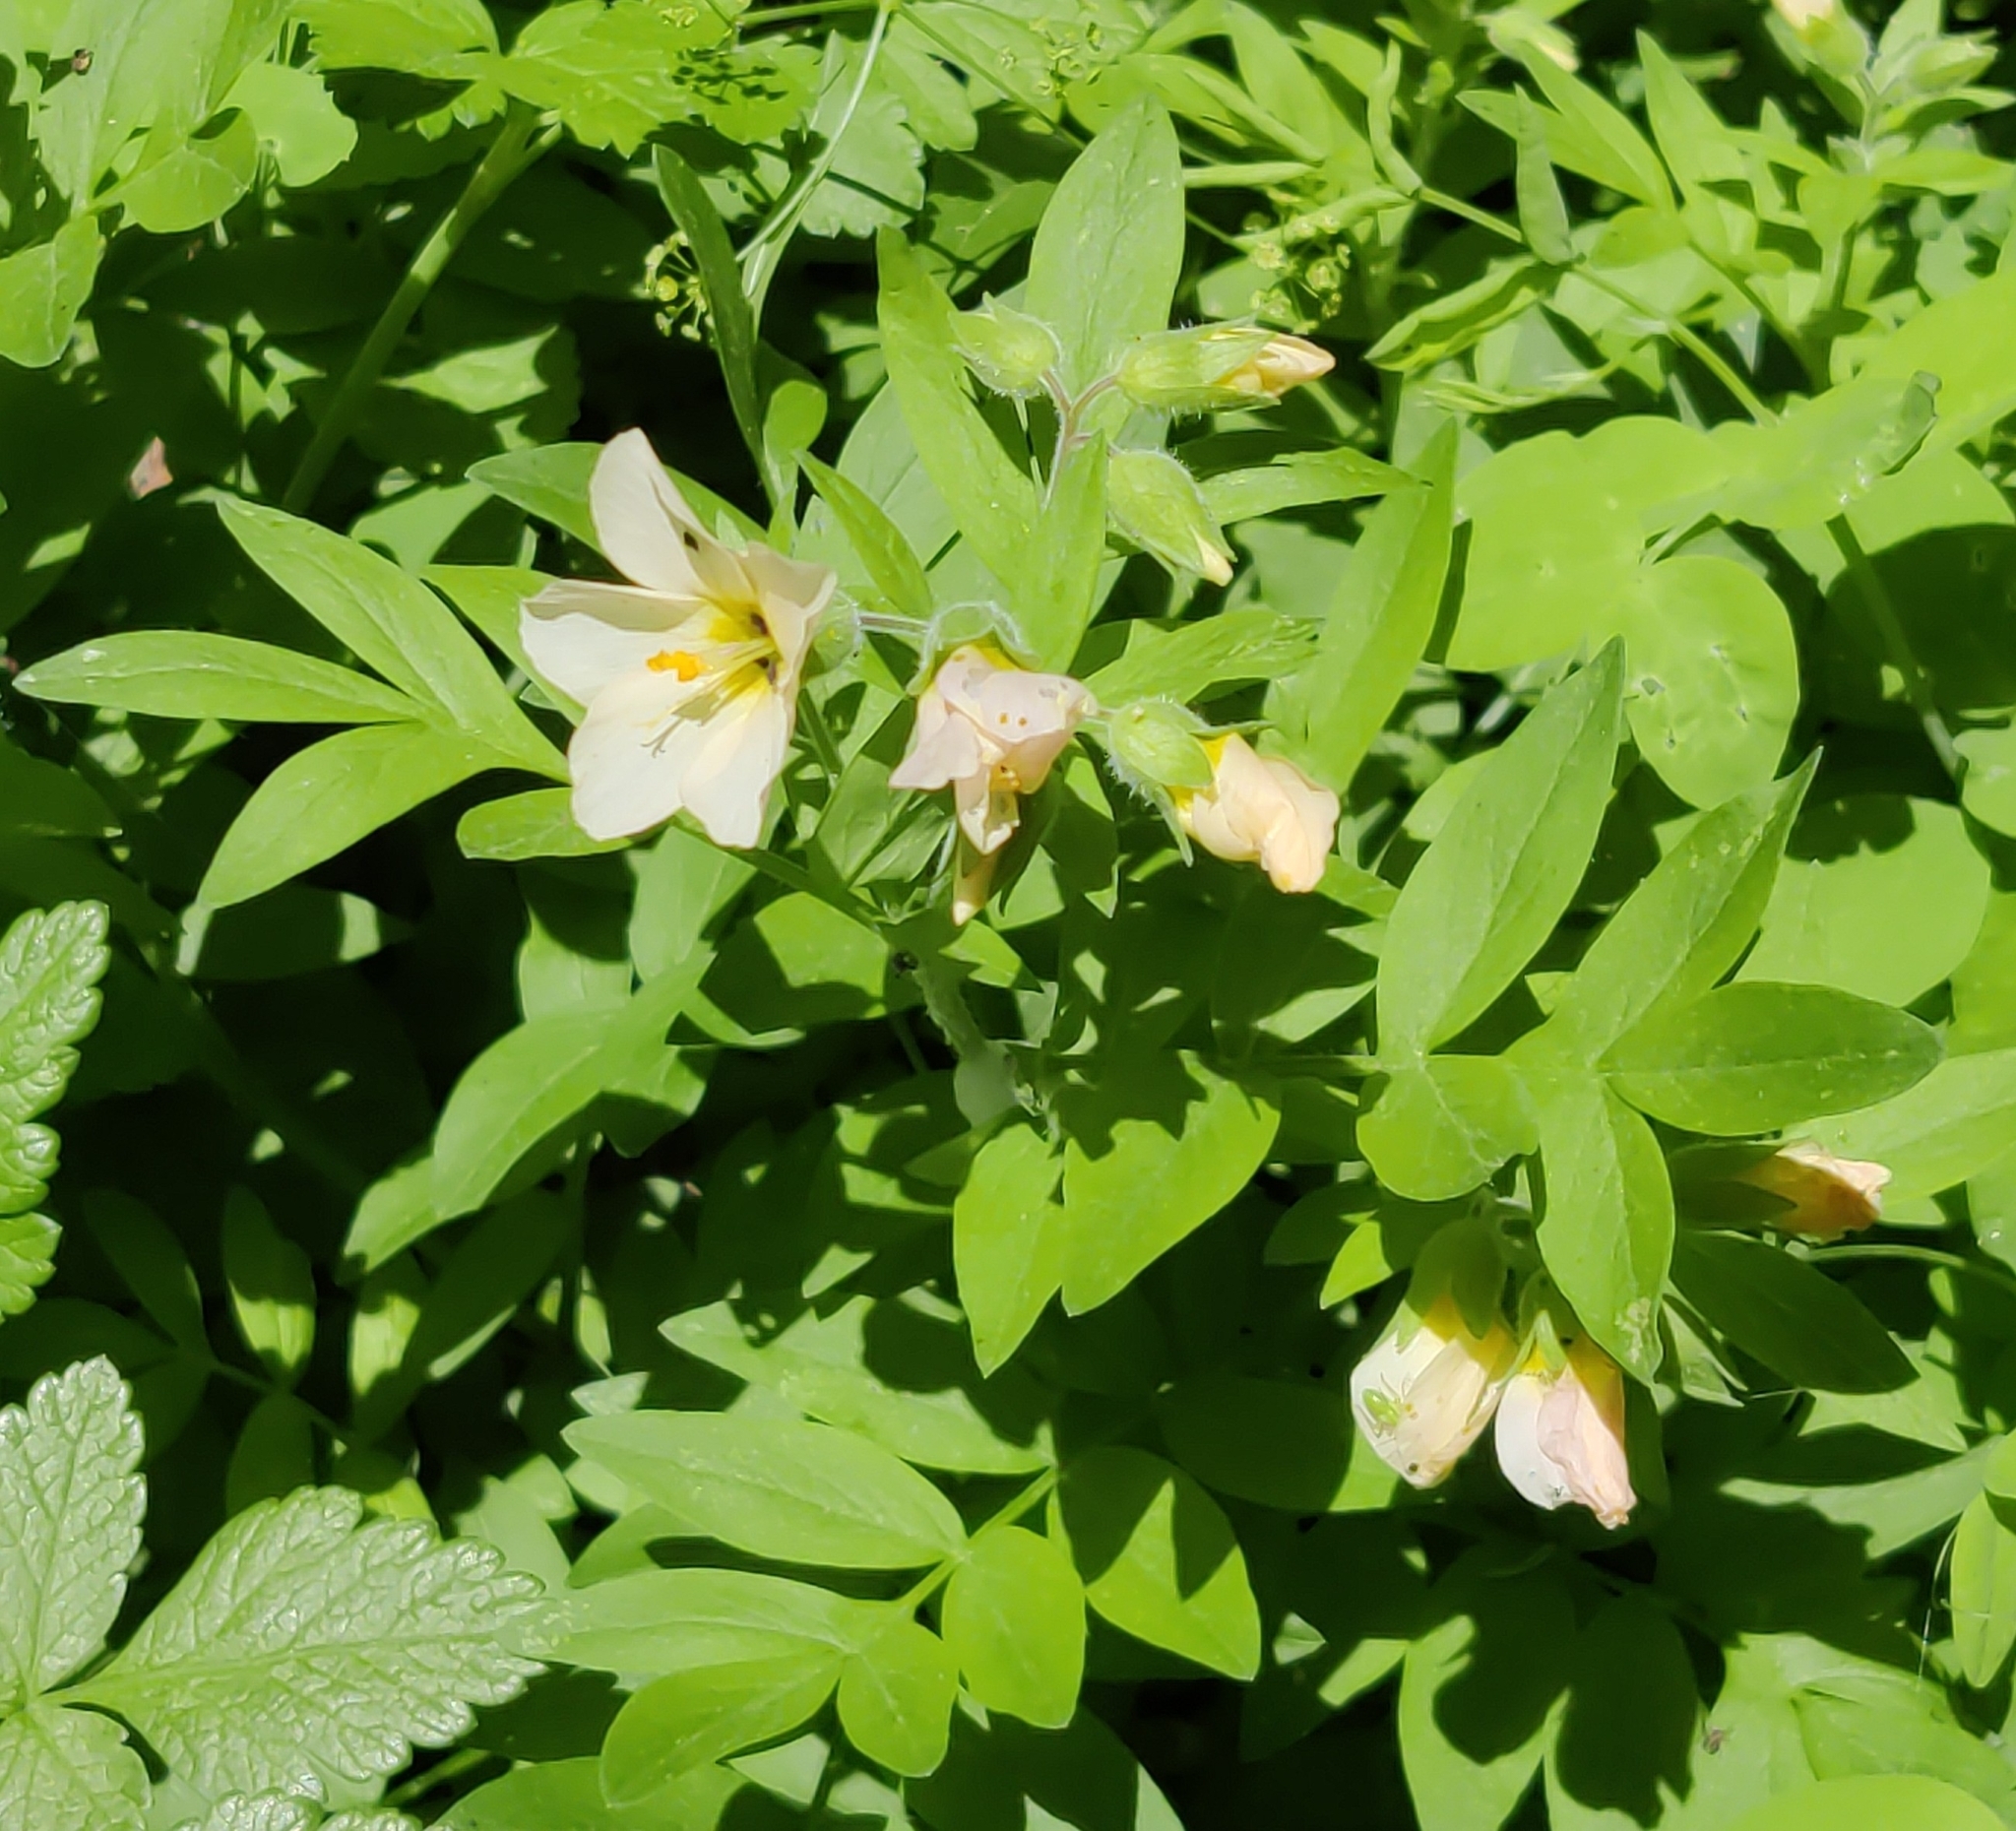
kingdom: Plantae
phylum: Tracheophyta
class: Magnoliopsida
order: Ericales
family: Polemoniaceae
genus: Polemonium
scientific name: Polemonium carneum
